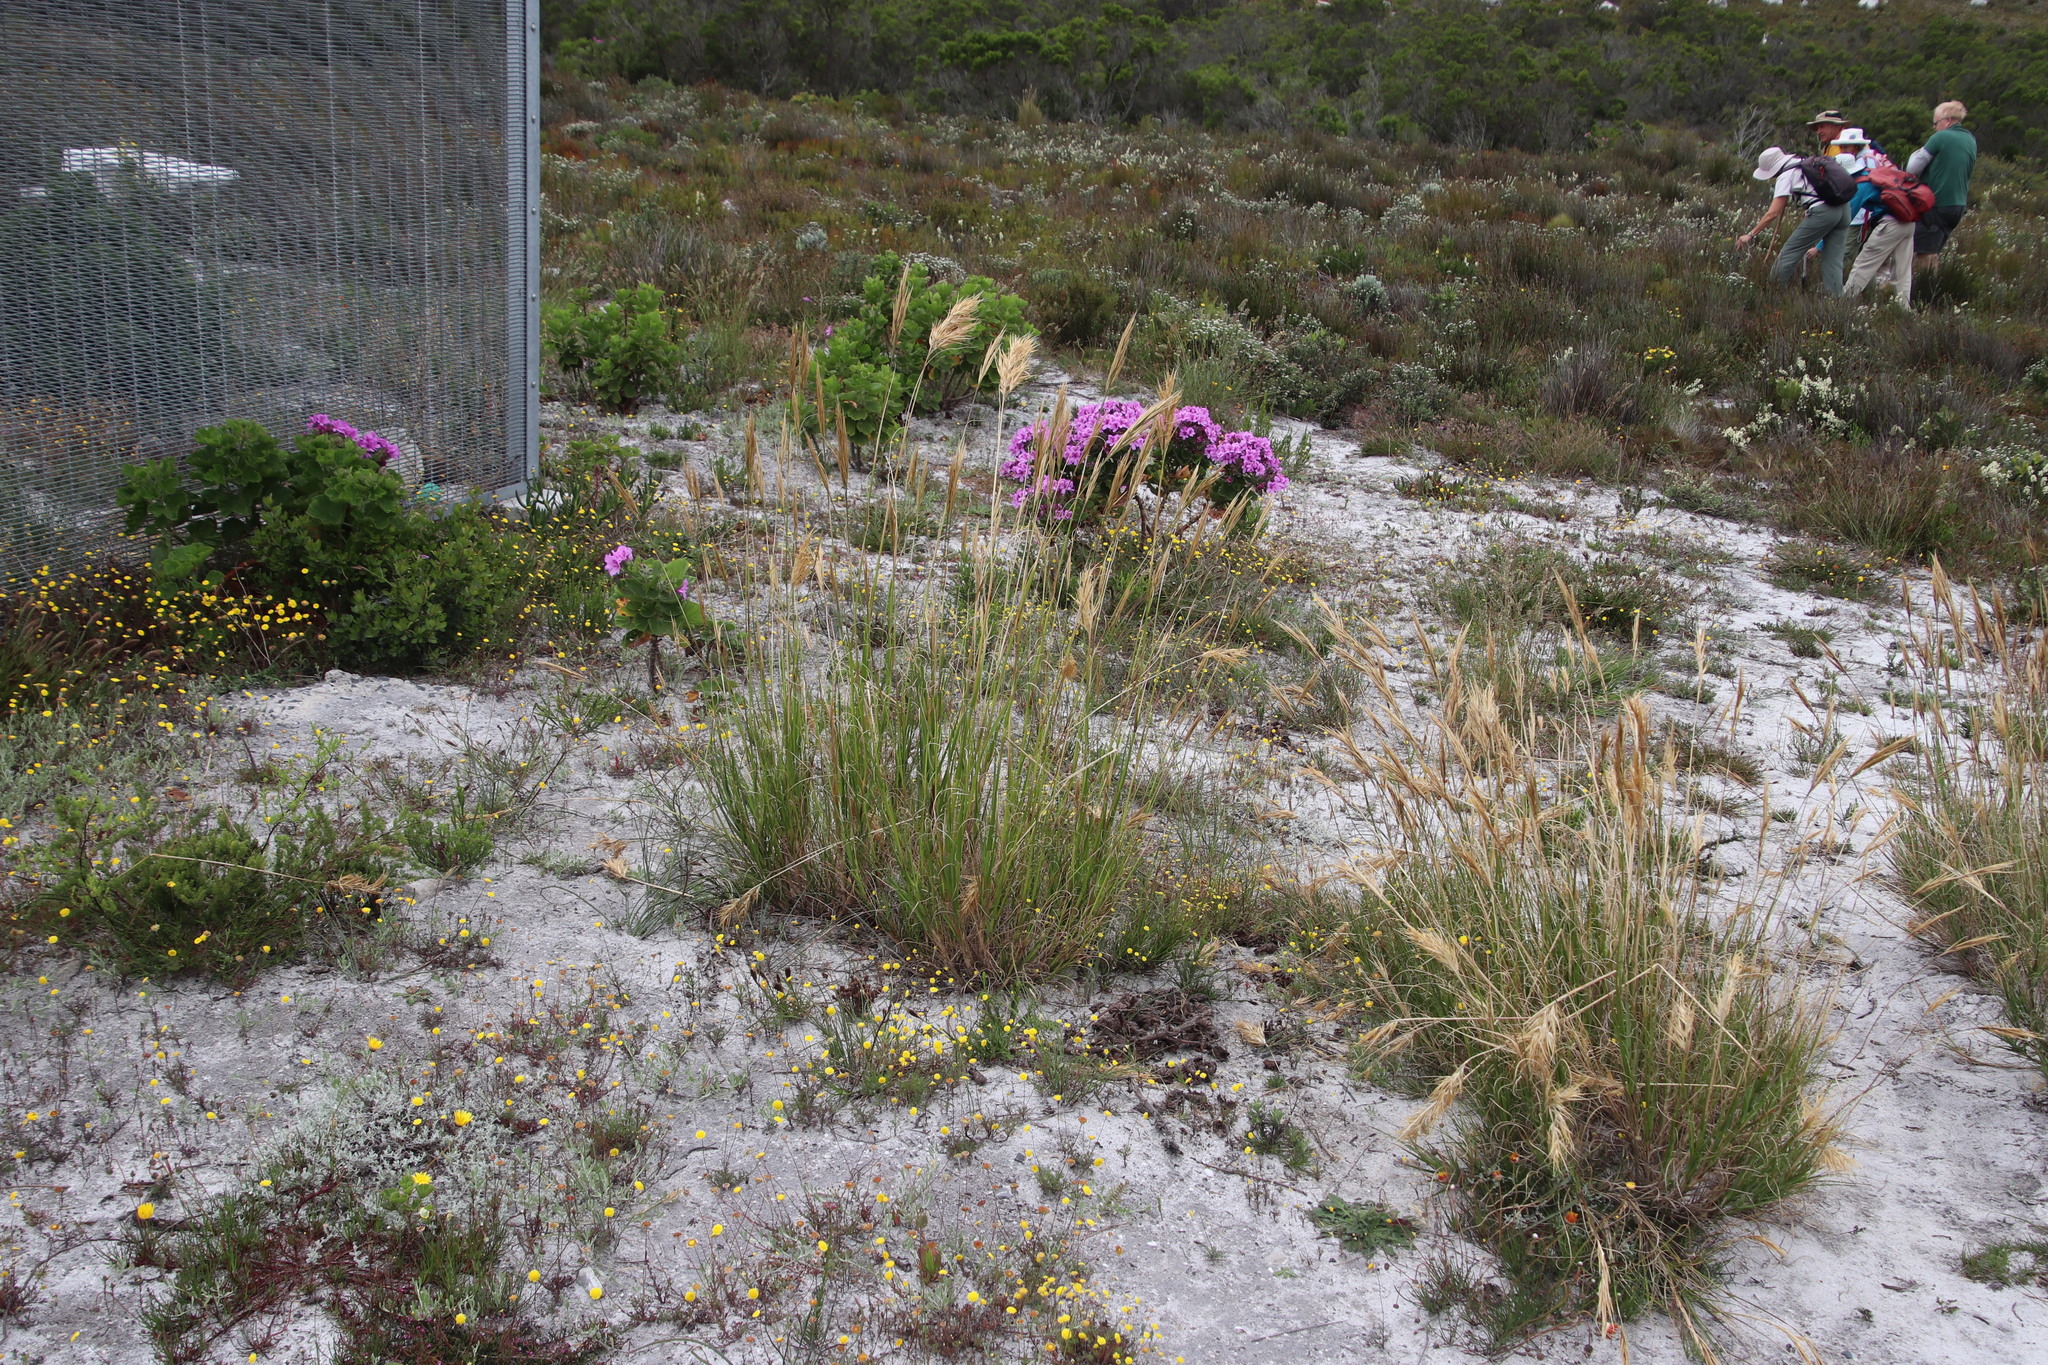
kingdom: Plantae
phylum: Tracheophyta
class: Liliopsida
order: Poales
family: Poaceae
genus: Pseudopentameris
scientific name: Pseudopentameris macrantha
